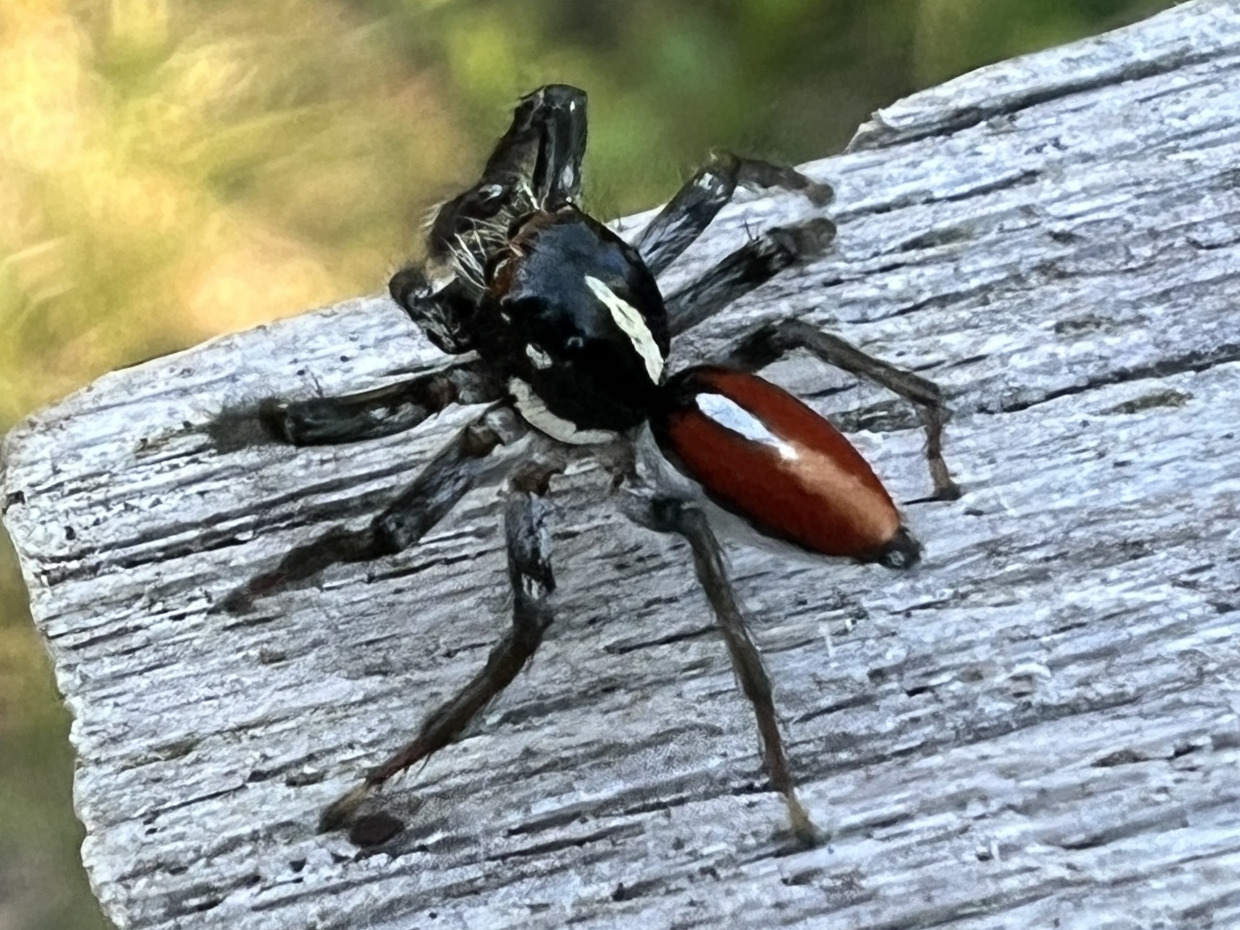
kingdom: Animalia
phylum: Arthropoda
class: Arachnida
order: Araneae
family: Salticidae
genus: Frigga
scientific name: Frigga pratensis
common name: Jumping spiders
